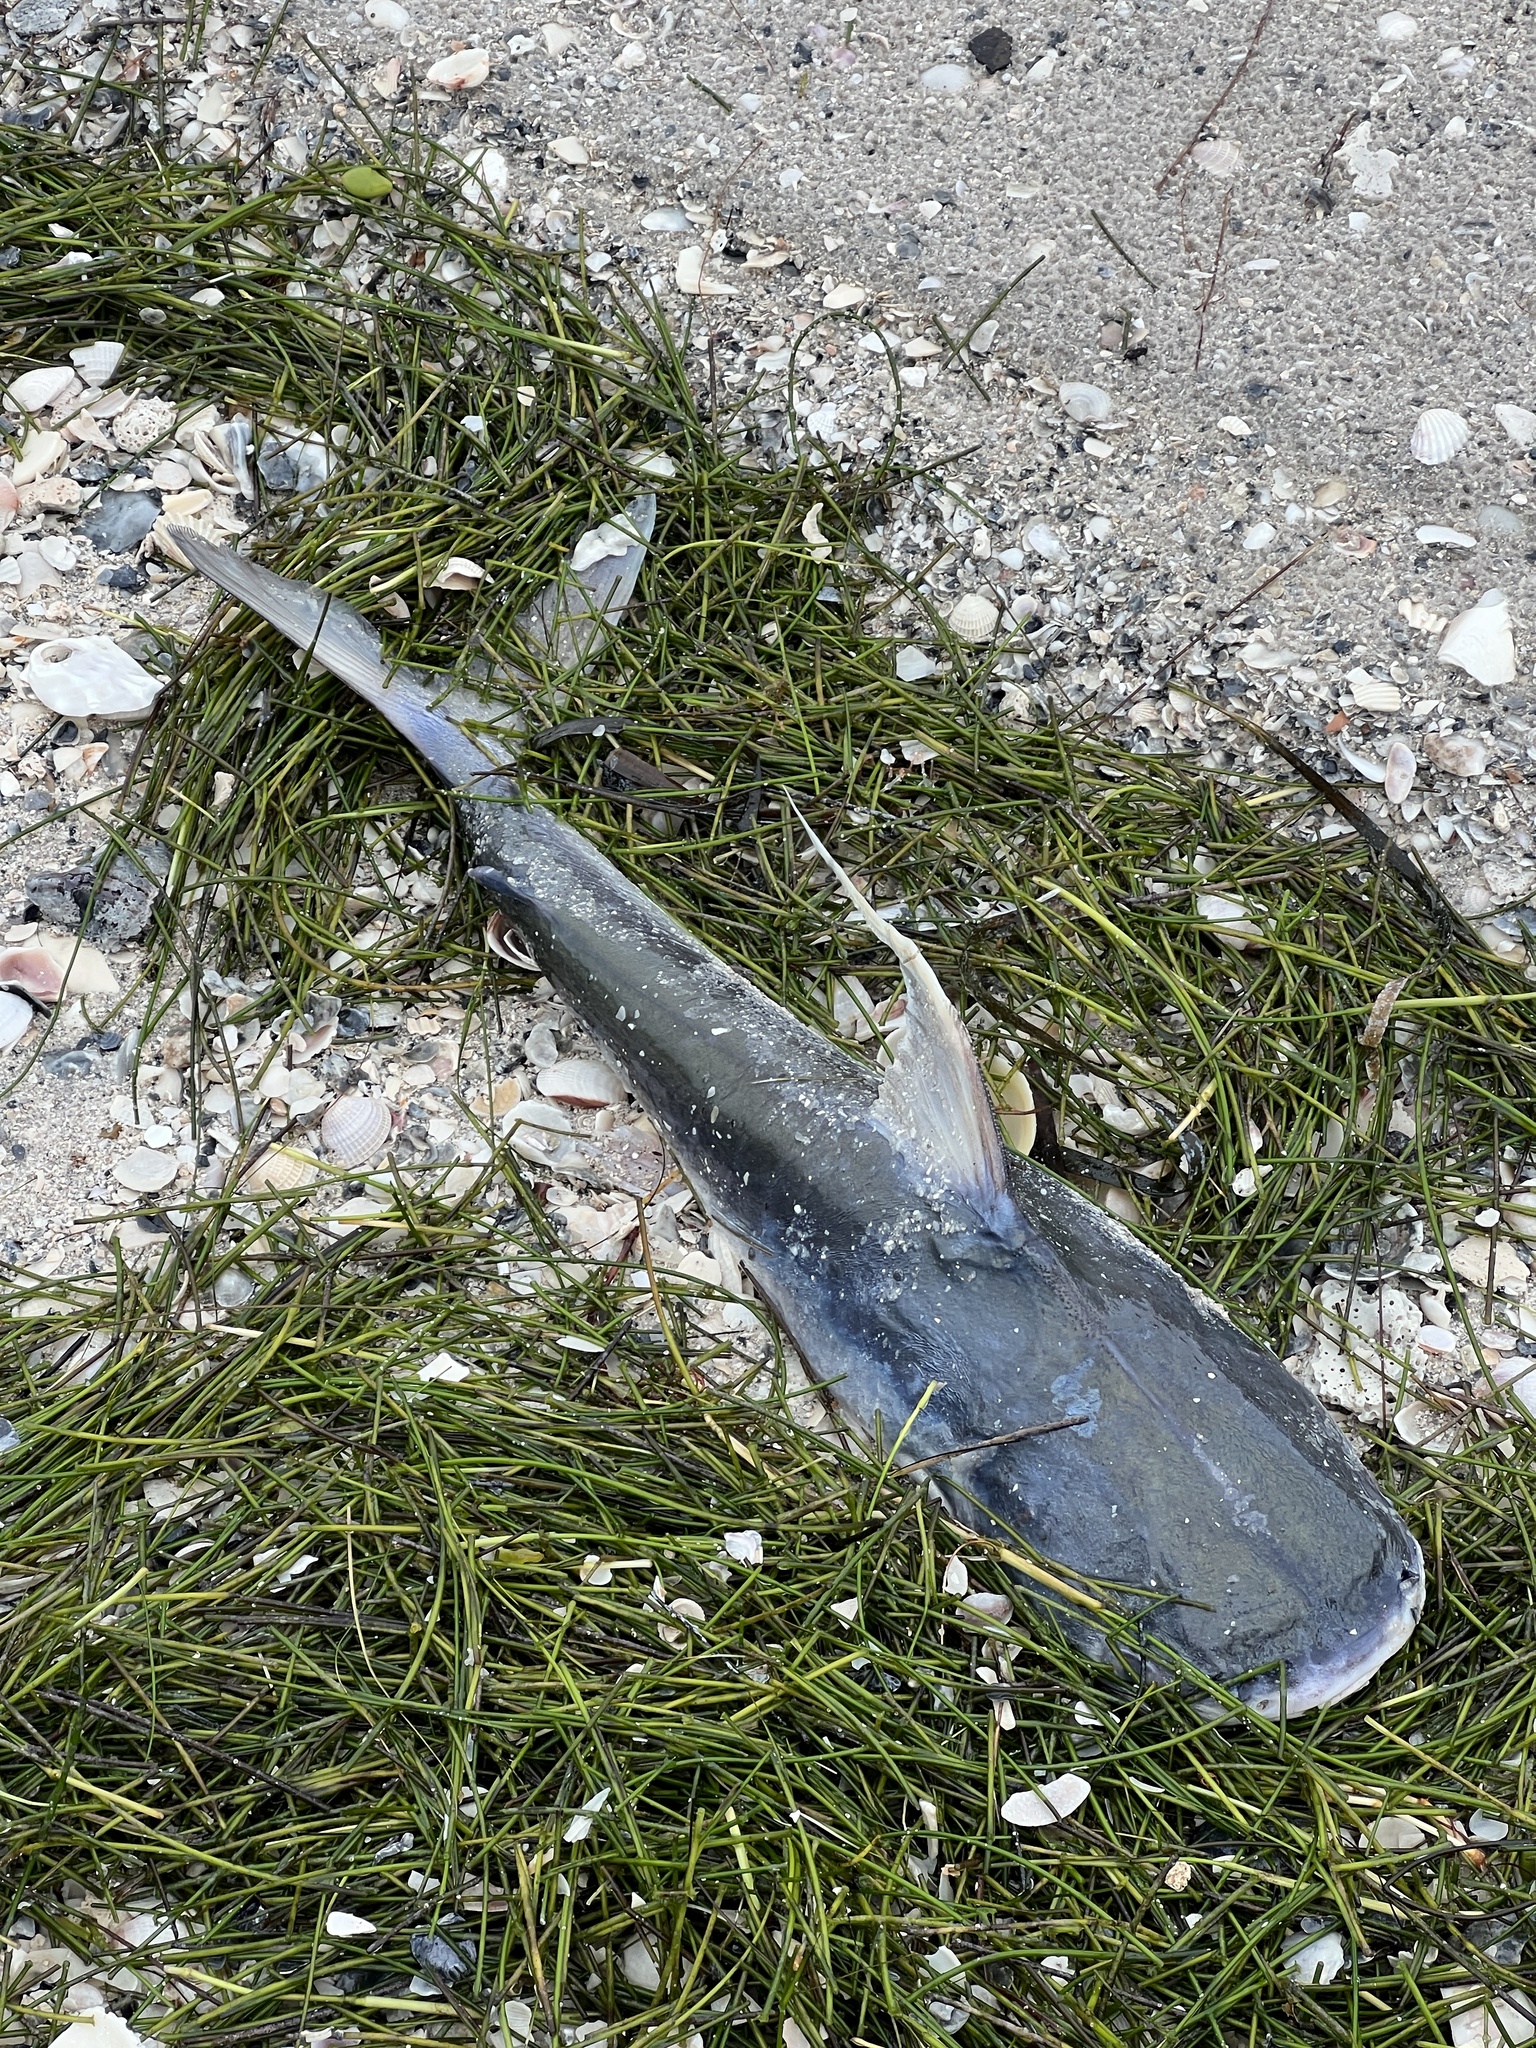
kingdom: Animalia
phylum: Chordata
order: Siluriformes
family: Ariidae
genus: Bagre
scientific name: Bagre marinus
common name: Gafftopsail sea catfish
